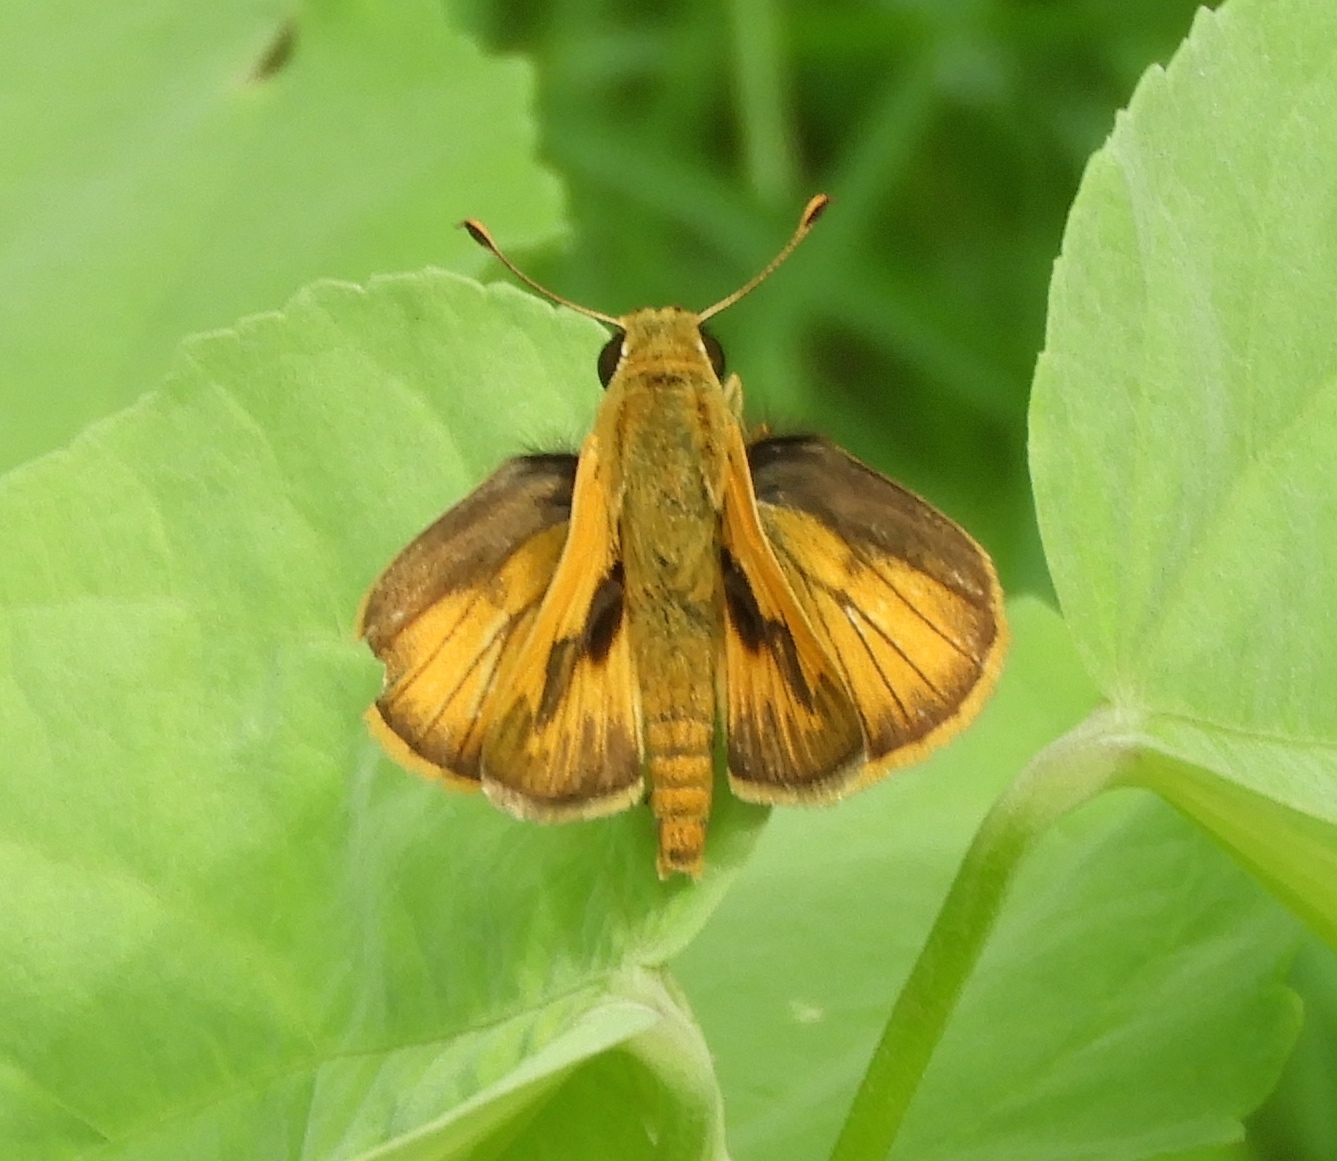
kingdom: Animalia
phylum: Arthropoda
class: Insecta
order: Lepidoptera
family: Hesperiidae
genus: Polites
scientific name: Polites vibex
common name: Whirlabout
